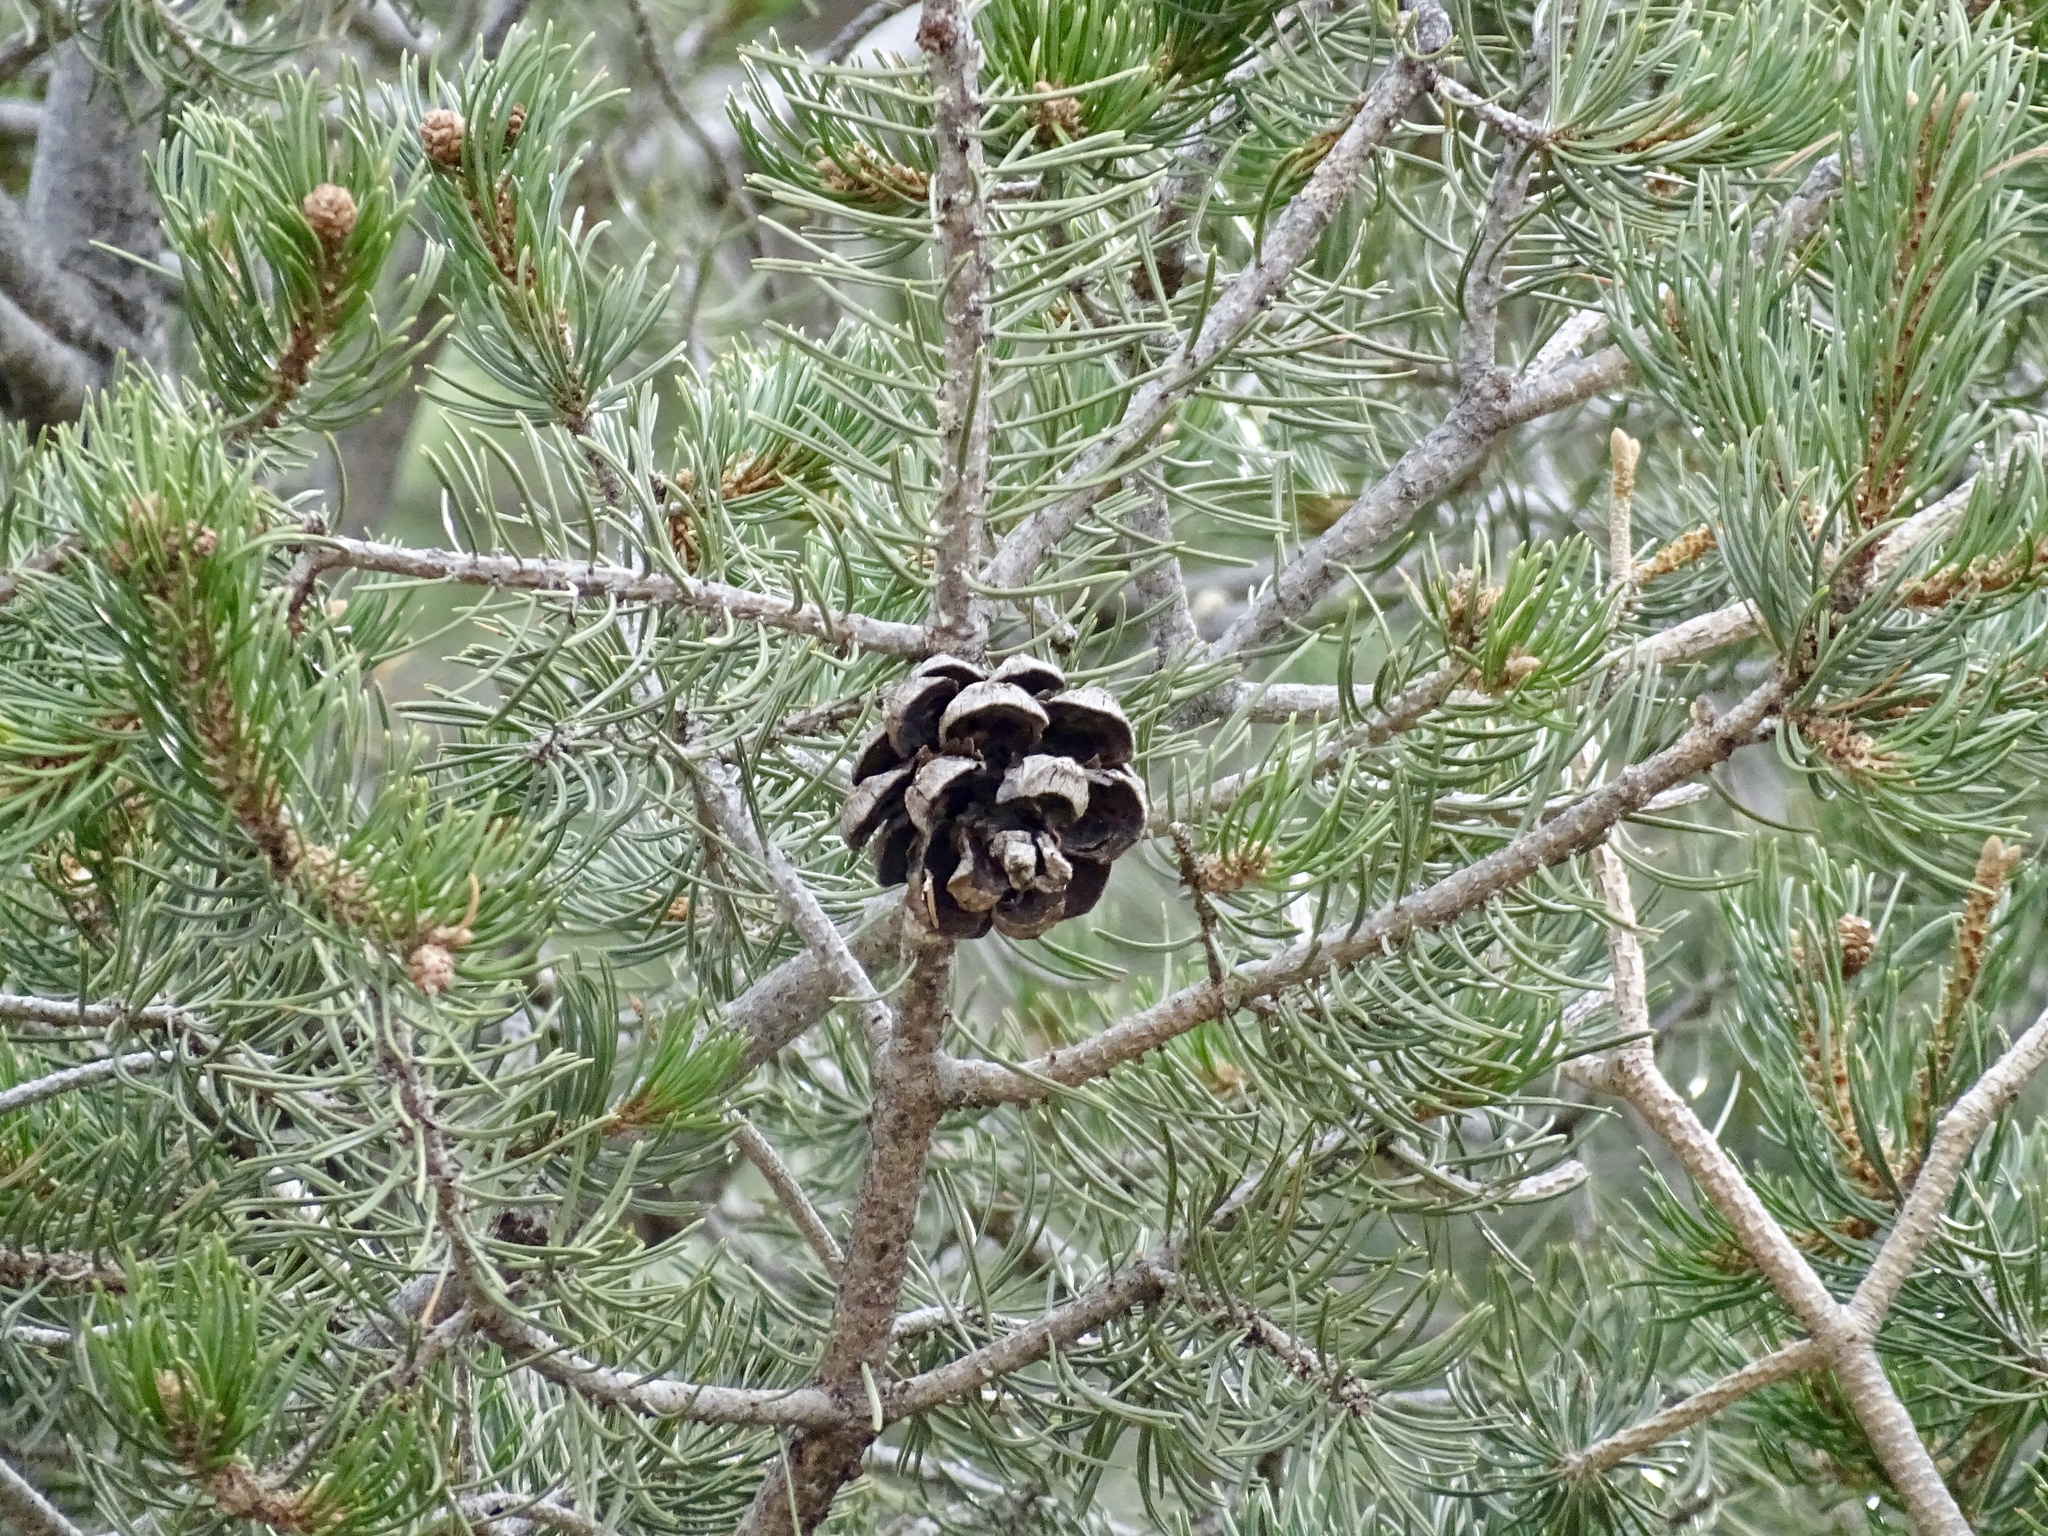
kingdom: Plantae
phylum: Tracheophyta
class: Pinopsida
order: Pinales
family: Pinaceae
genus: Pinus
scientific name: Pinus edulis
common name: Colorado pinyon
